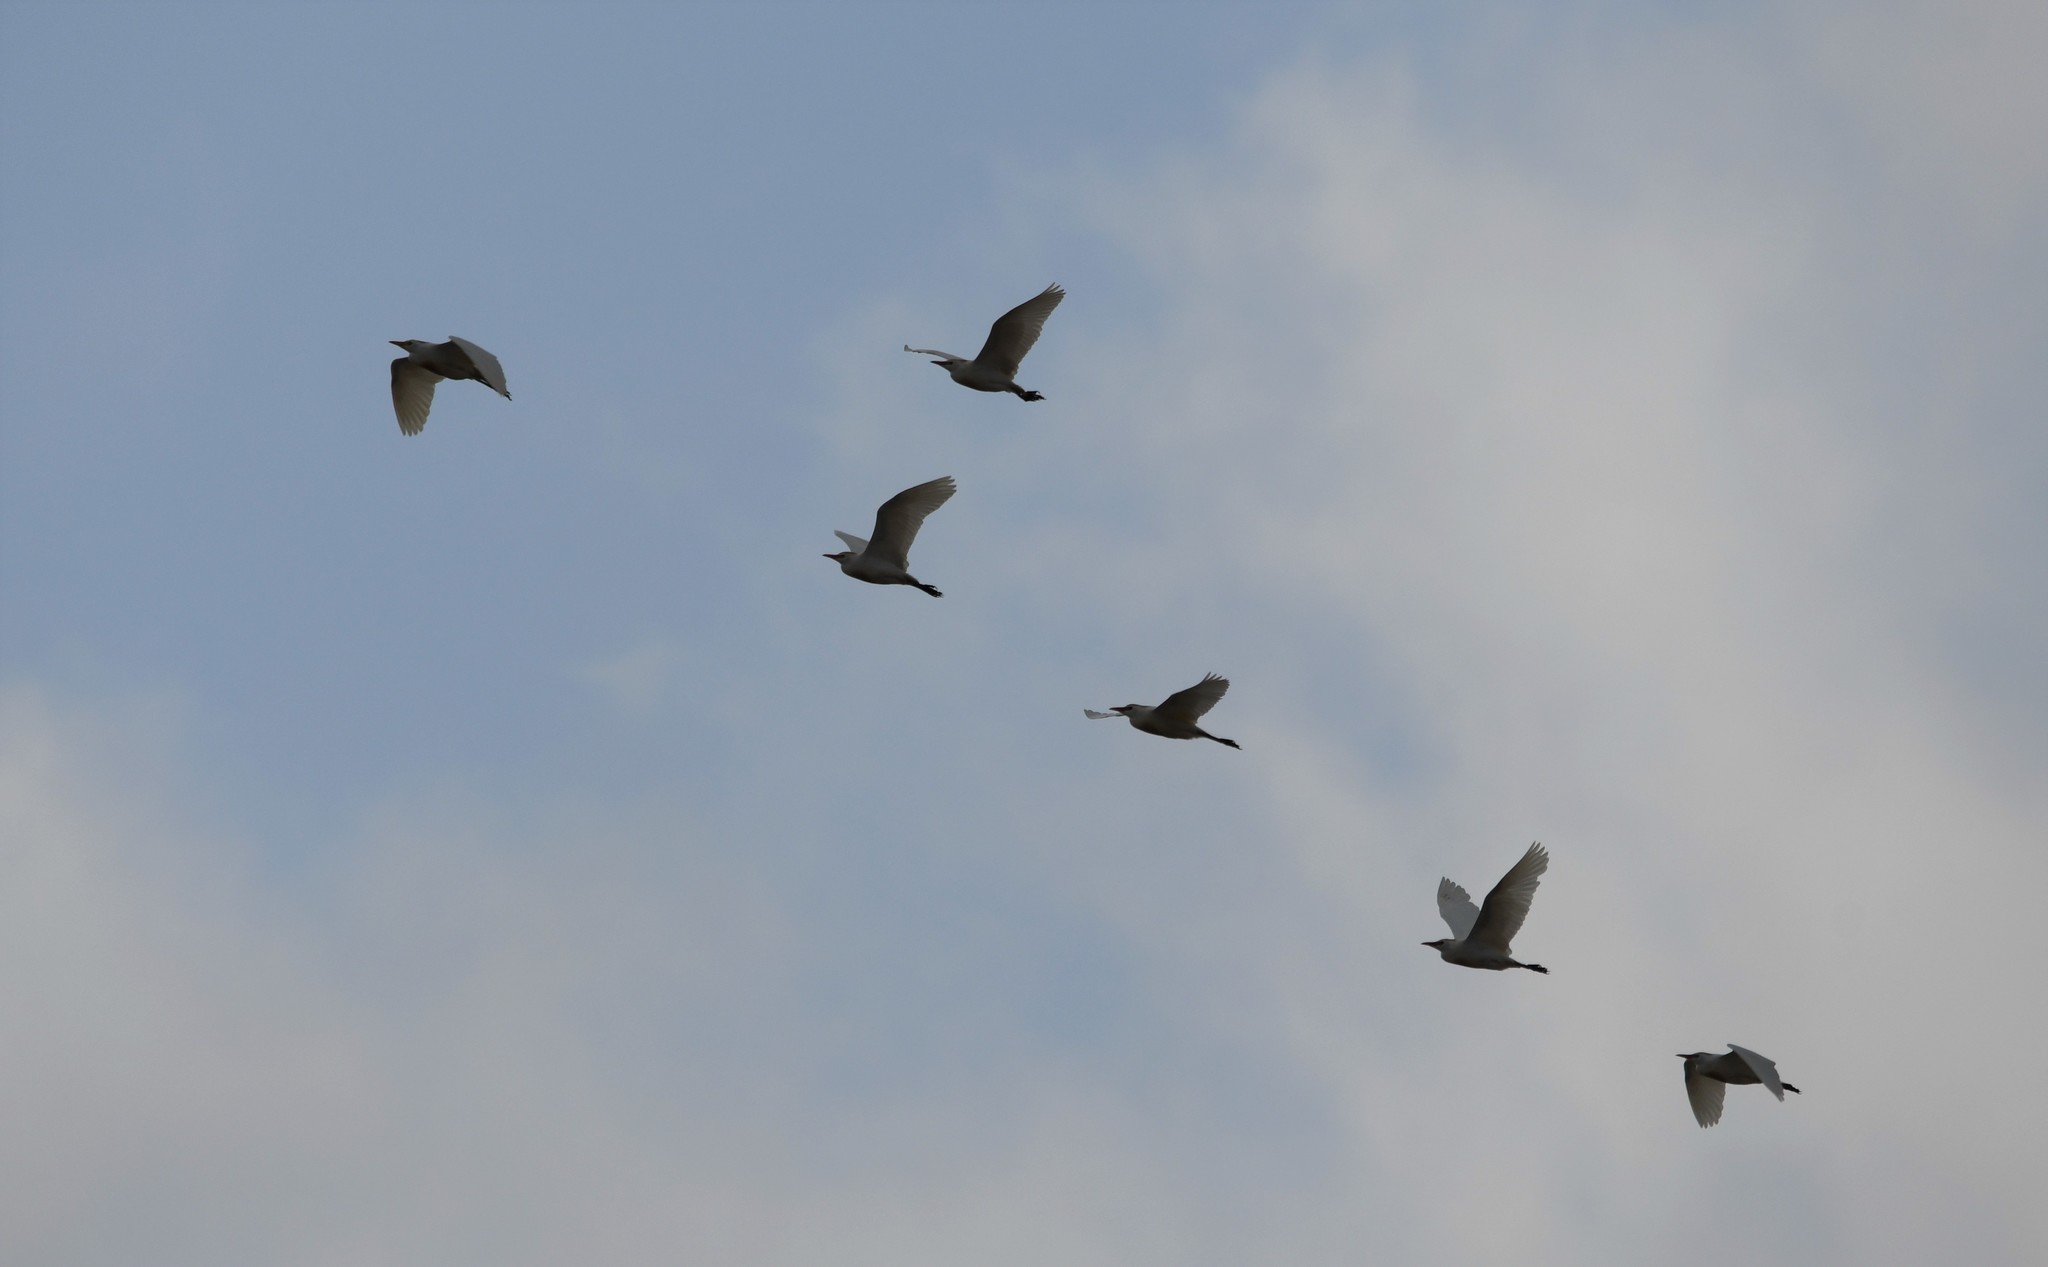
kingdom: Animalia
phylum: Chordata
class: Aves
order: Pelecaniformes
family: Ardeidae
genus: Bubulcus
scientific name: Bubulcus ibis
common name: Cattle egret
